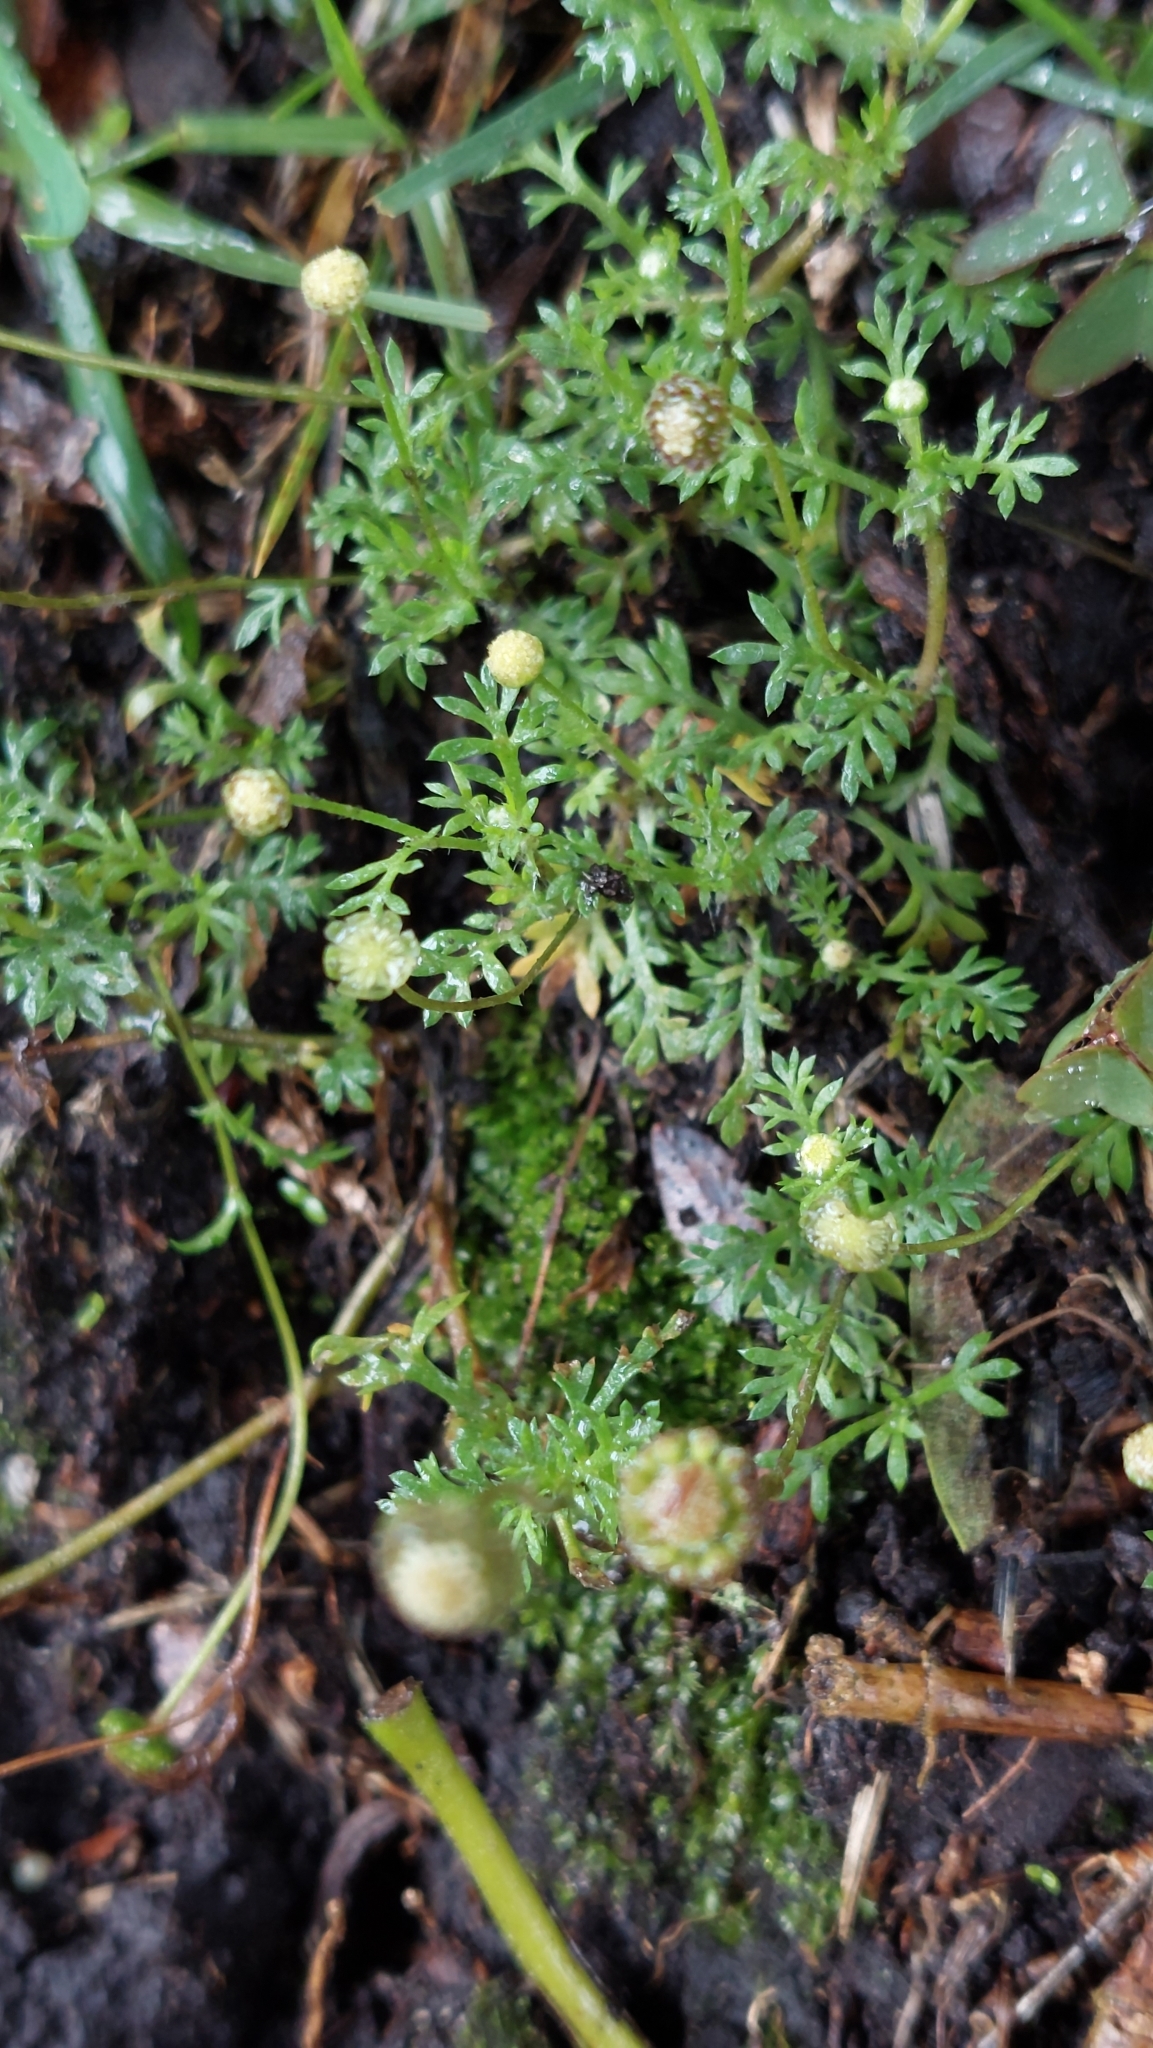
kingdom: Plantae
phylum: Tracheophyta
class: Magnoliopsida
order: Asterales
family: Asteraceae
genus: Cotula
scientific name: Cotula australis
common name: Australian waterbuttons
